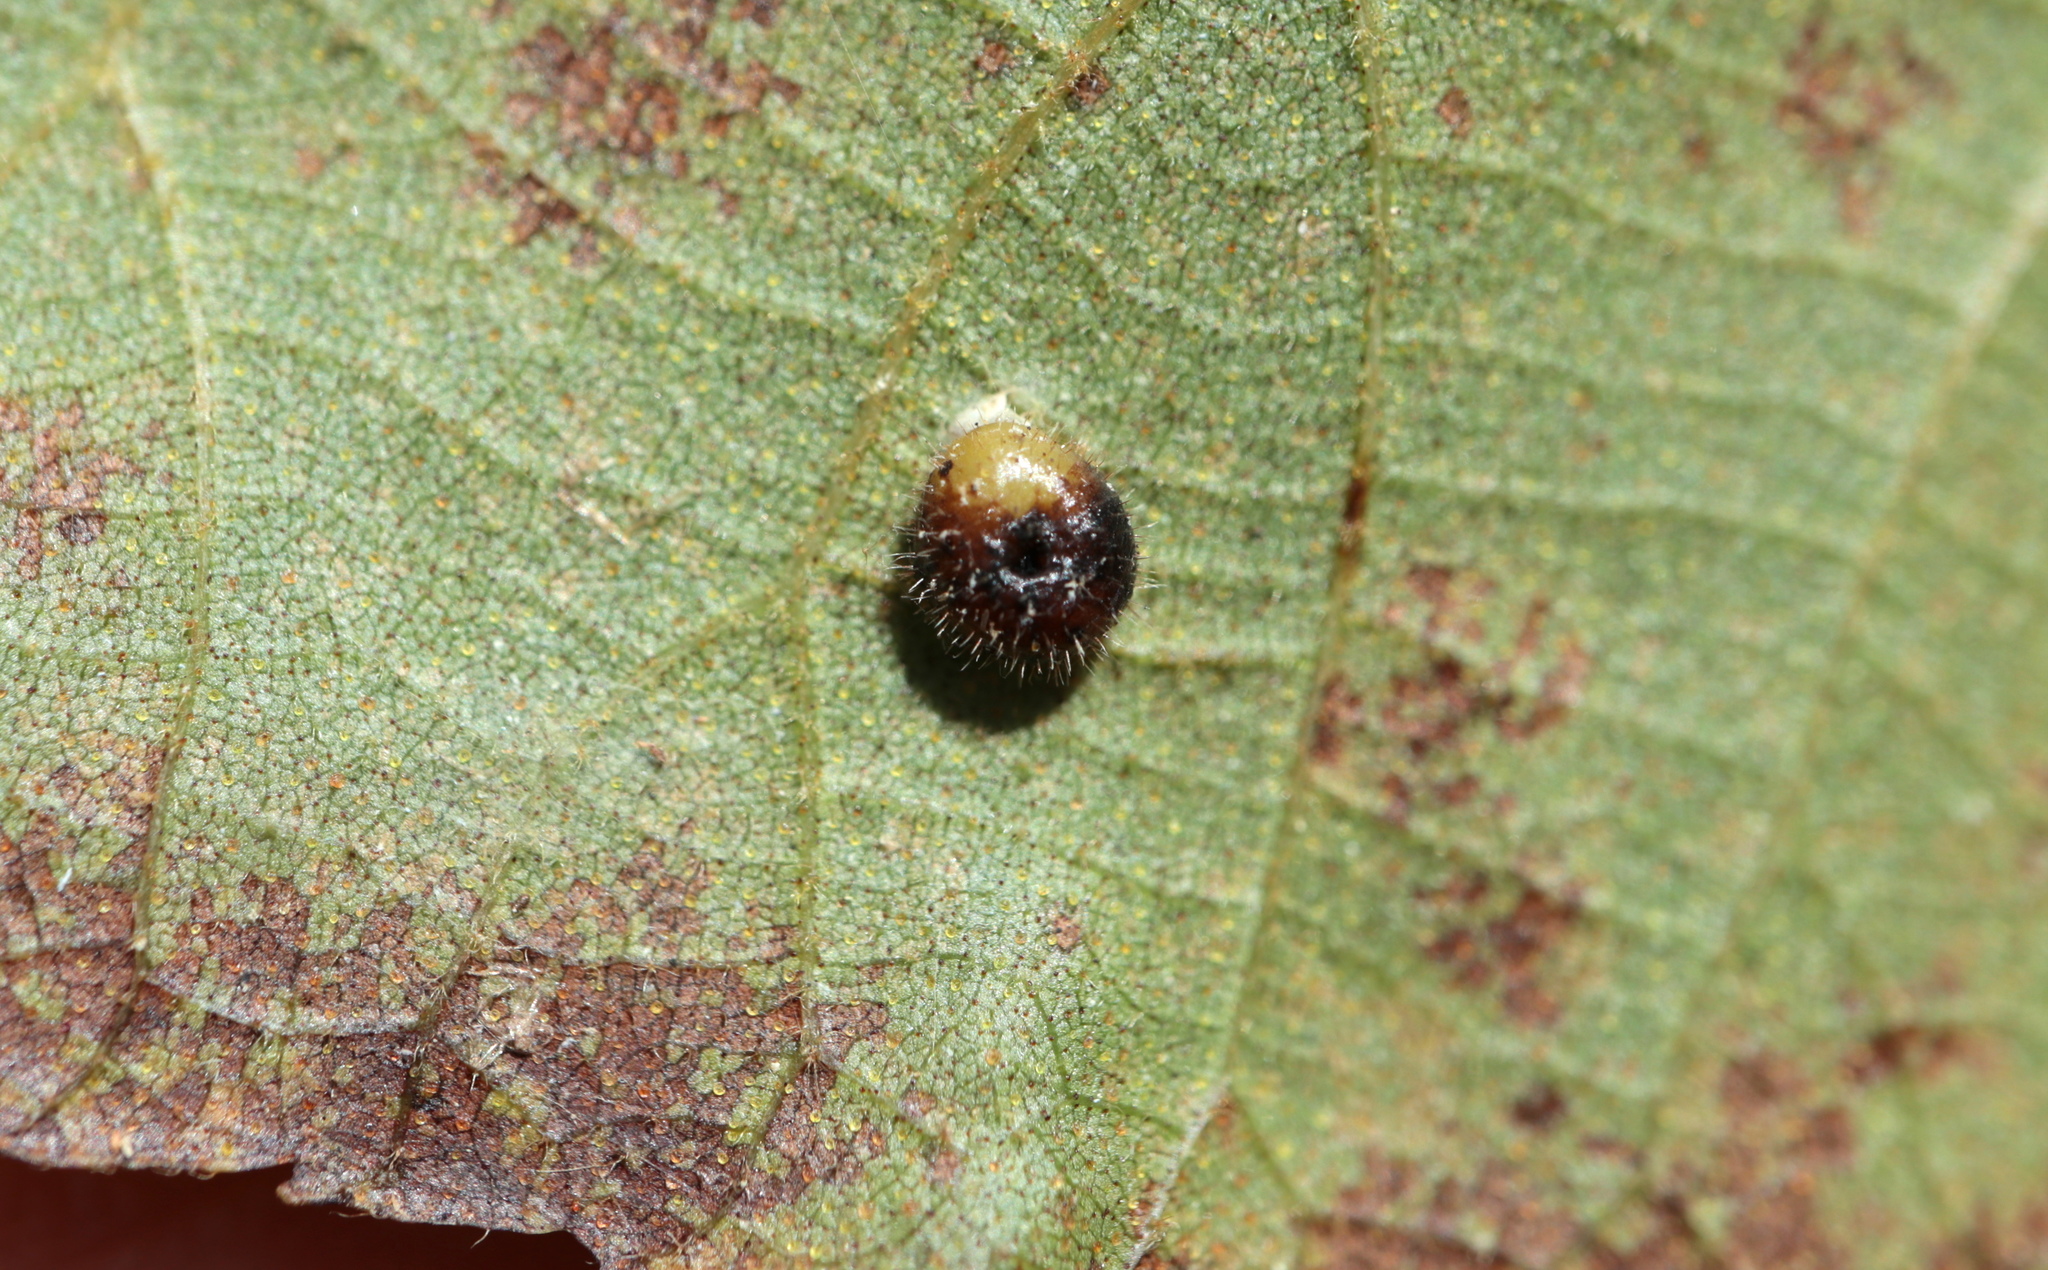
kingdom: Animalia
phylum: Arthropoda
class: Insecta
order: Diptera
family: Cecidomyiidae
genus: Caryomyia
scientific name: Caryomyia thompsoni
